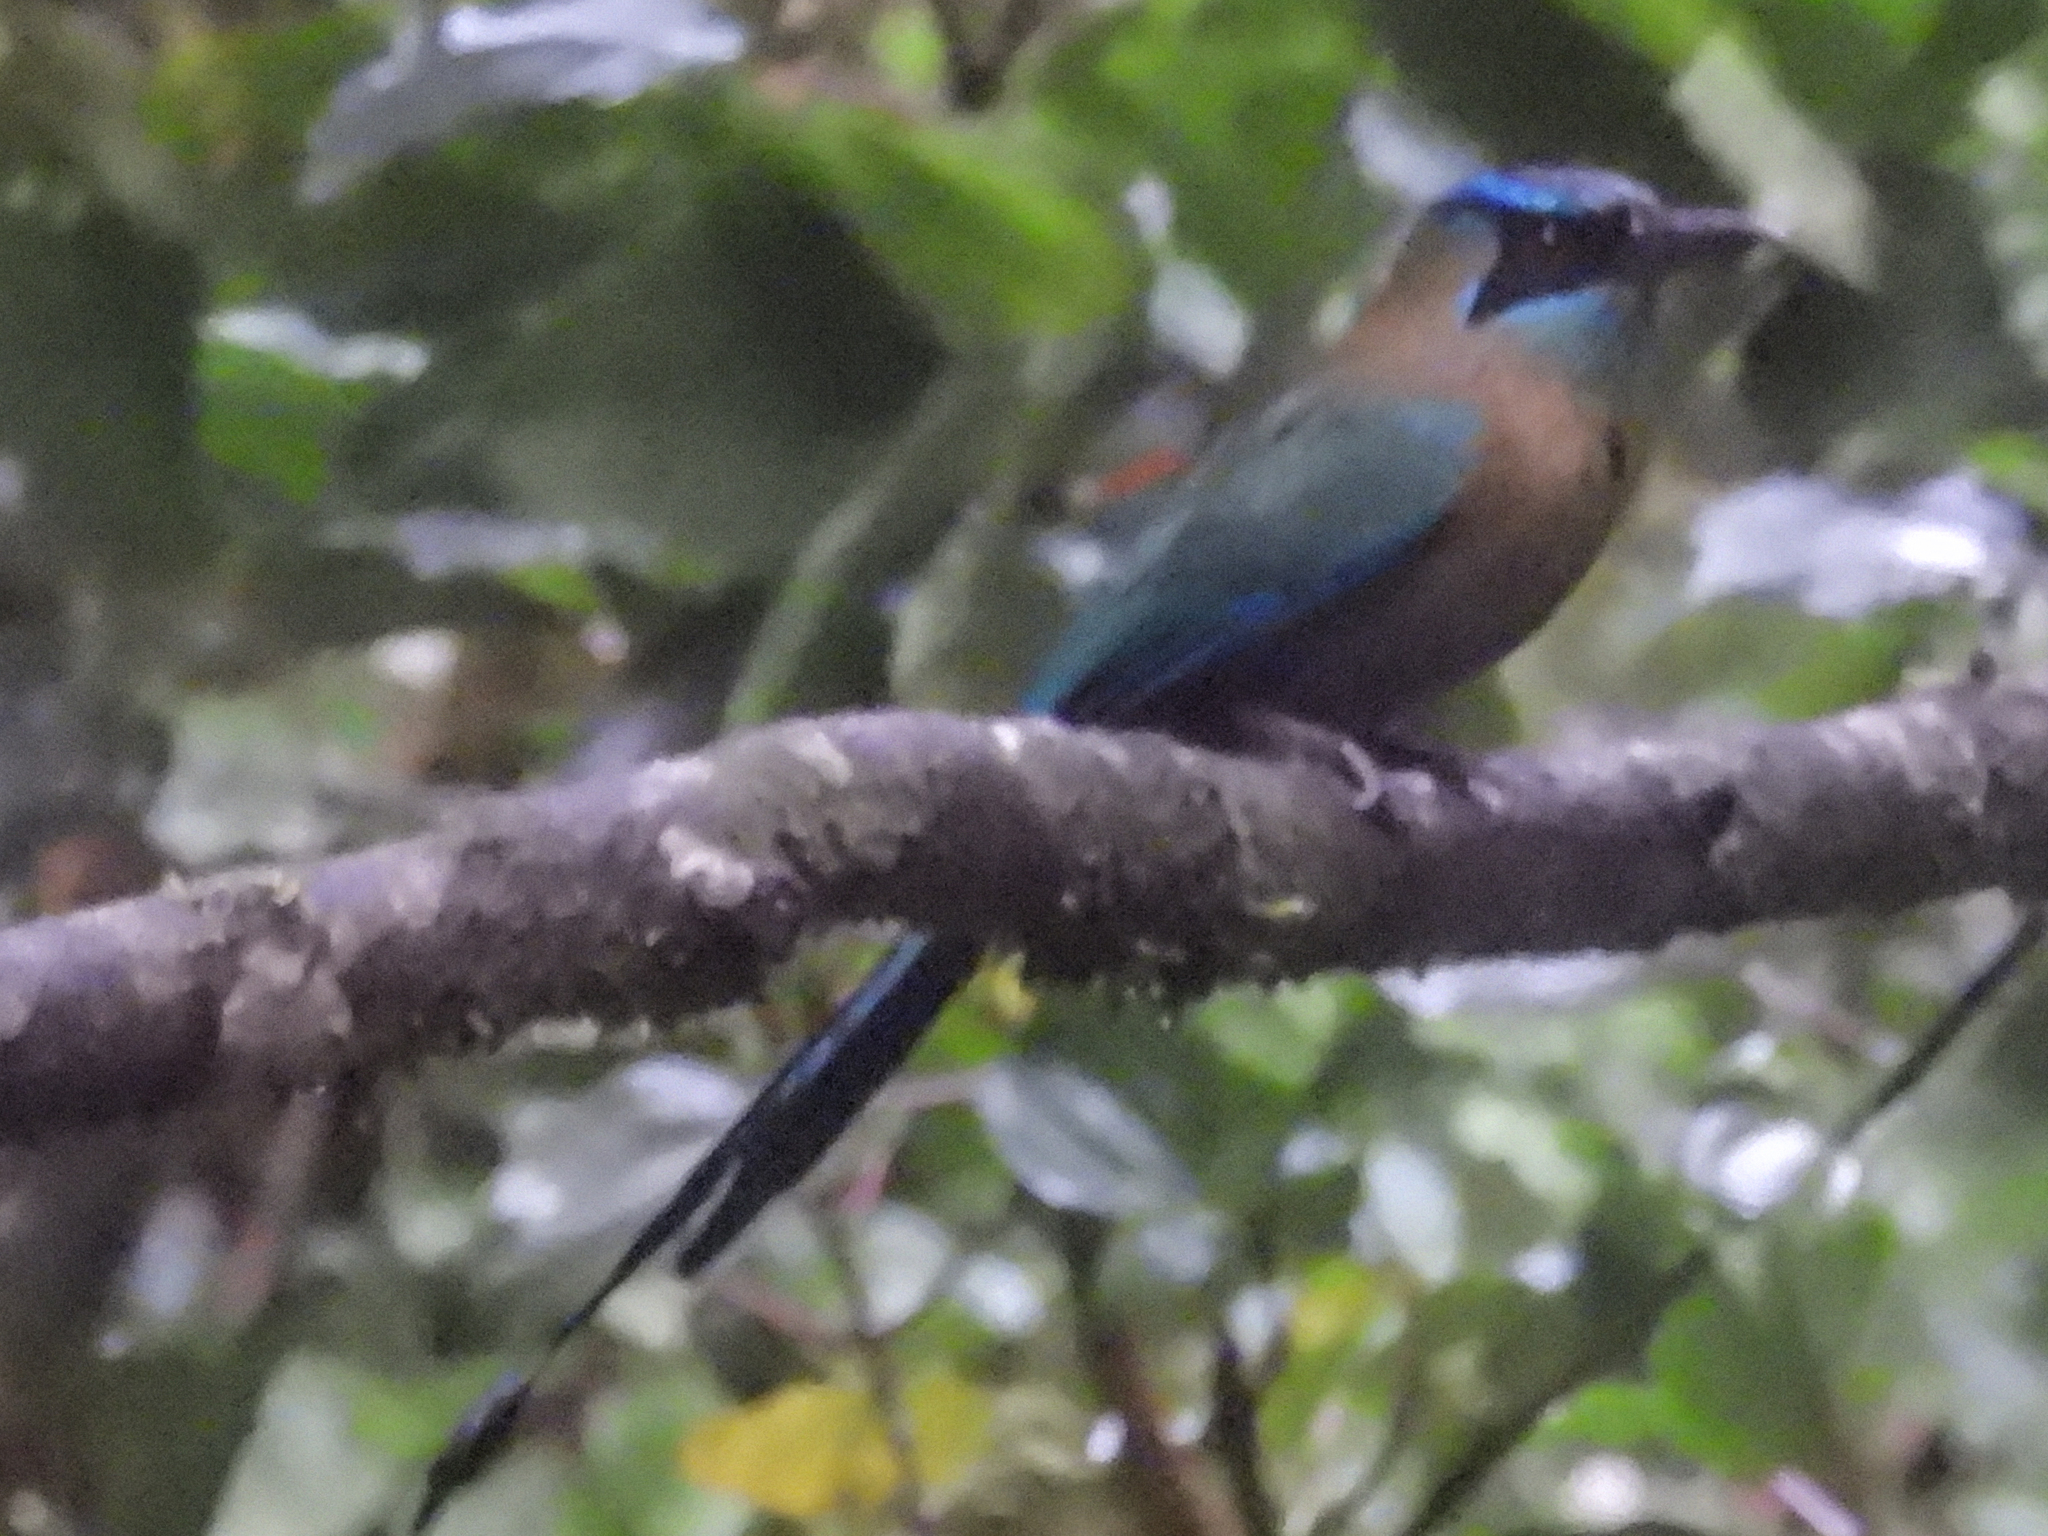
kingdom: Animalia
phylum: Chordata
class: Aves
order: Coraciiformes
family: Momotidae
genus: Momotus
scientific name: Momotus lessonii
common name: Lesson's motmot
